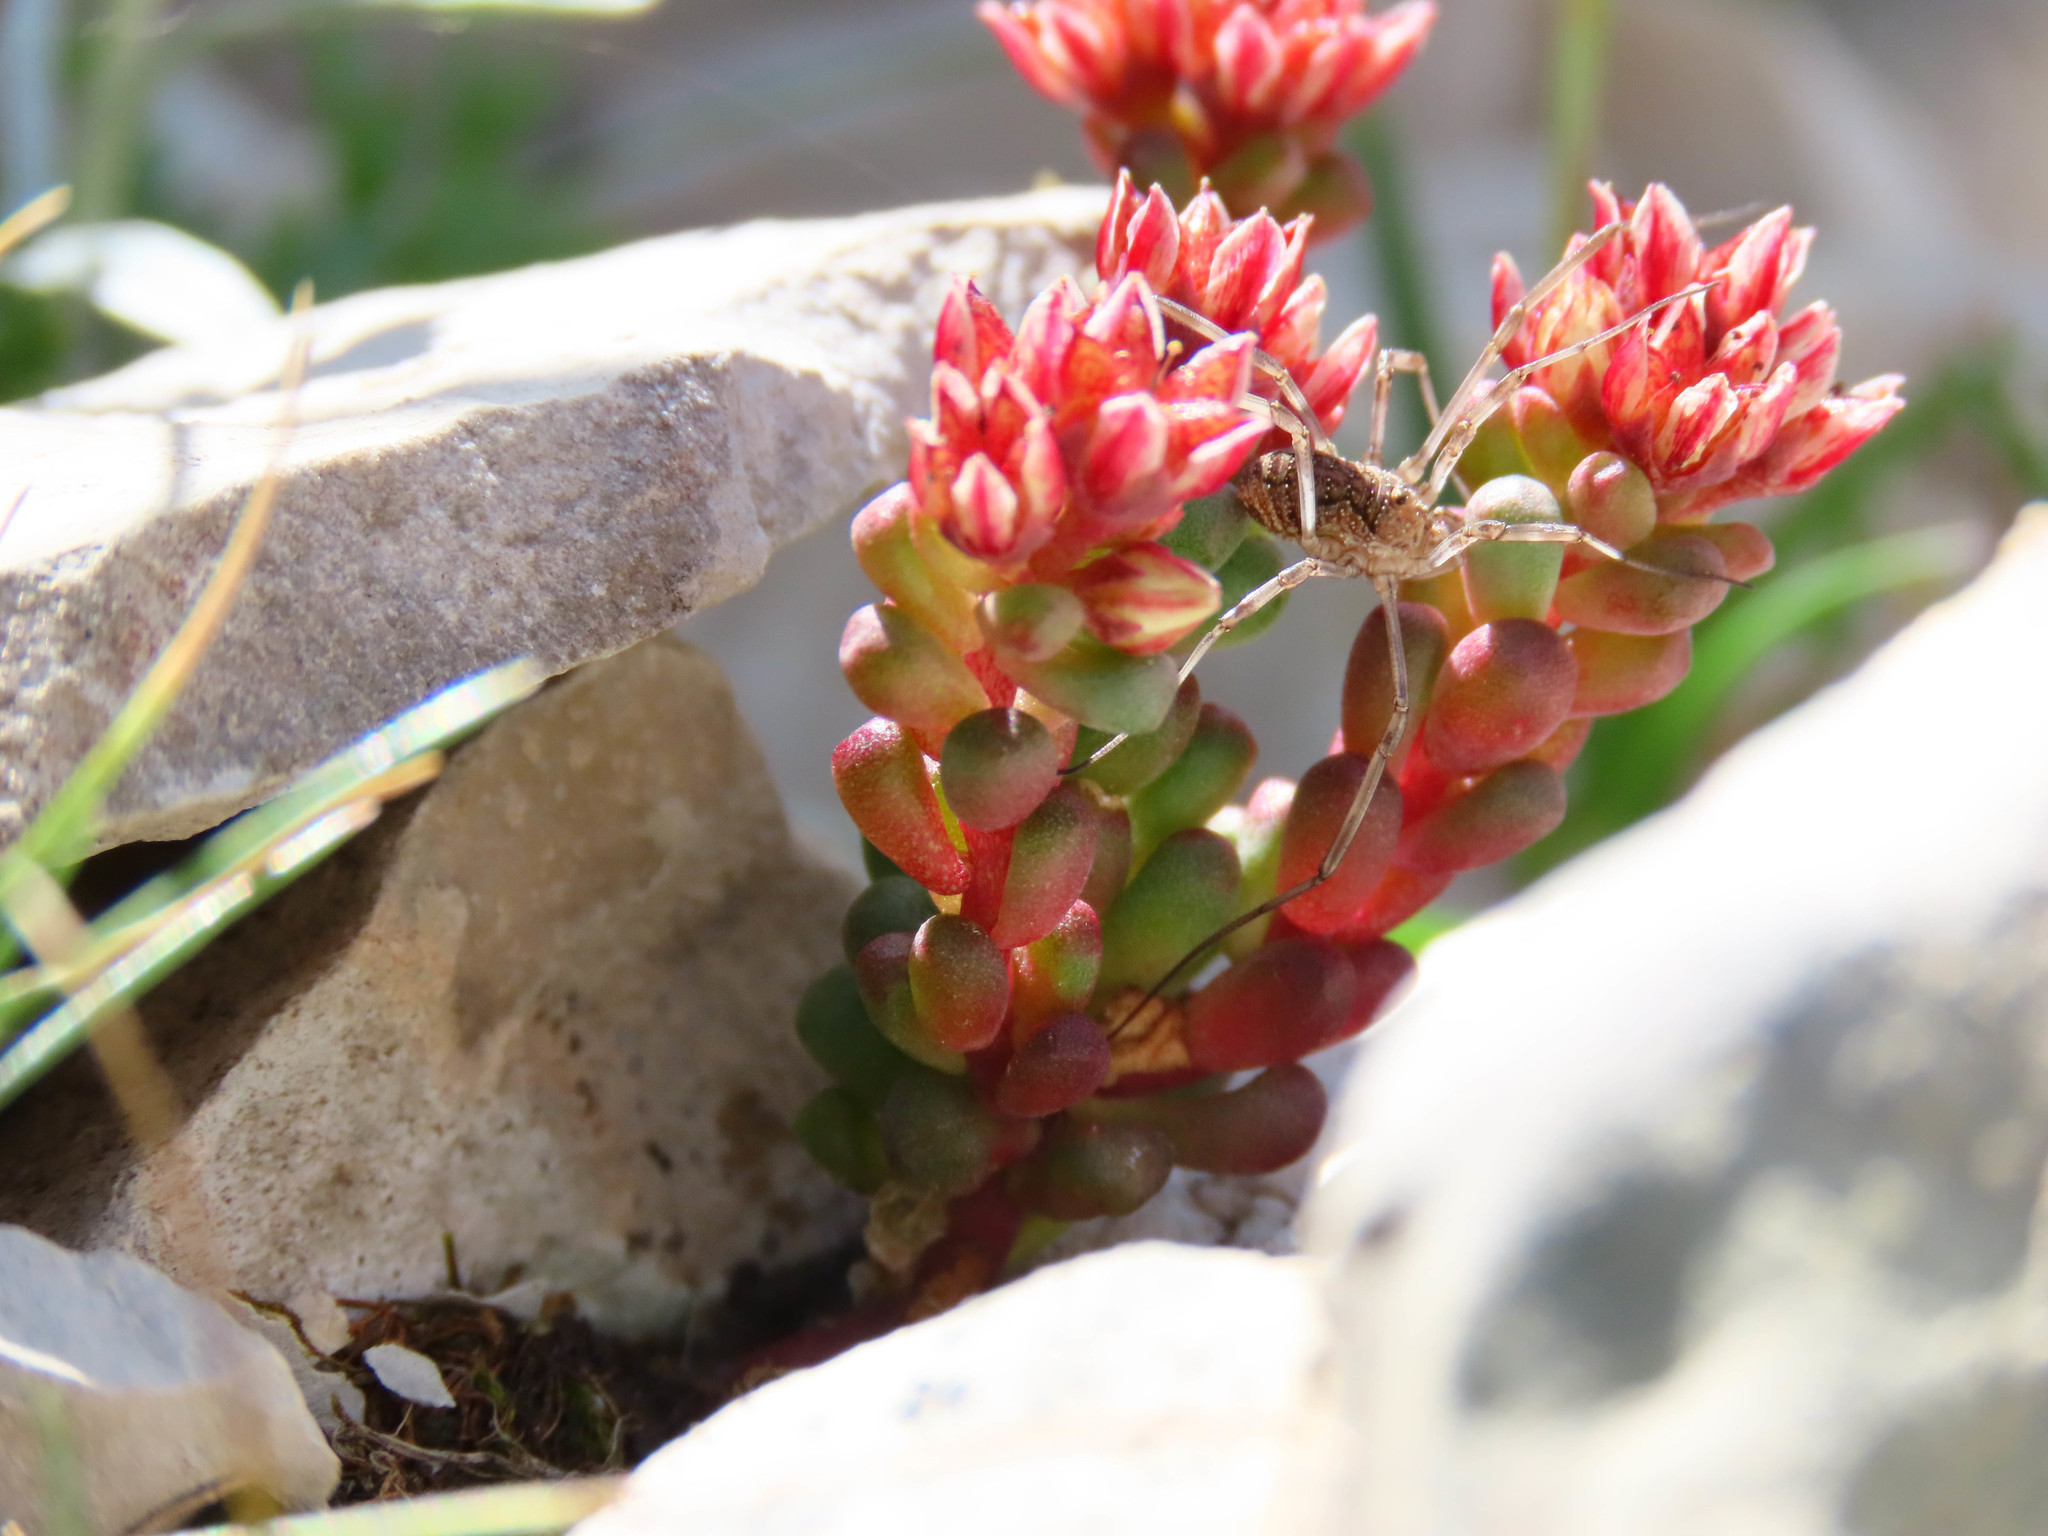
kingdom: Plantae
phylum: Tracheophyta
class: Magnoliopsida
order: Saxifragales
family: Crassulaceae
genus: Sedum
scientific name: Sedum atratum
